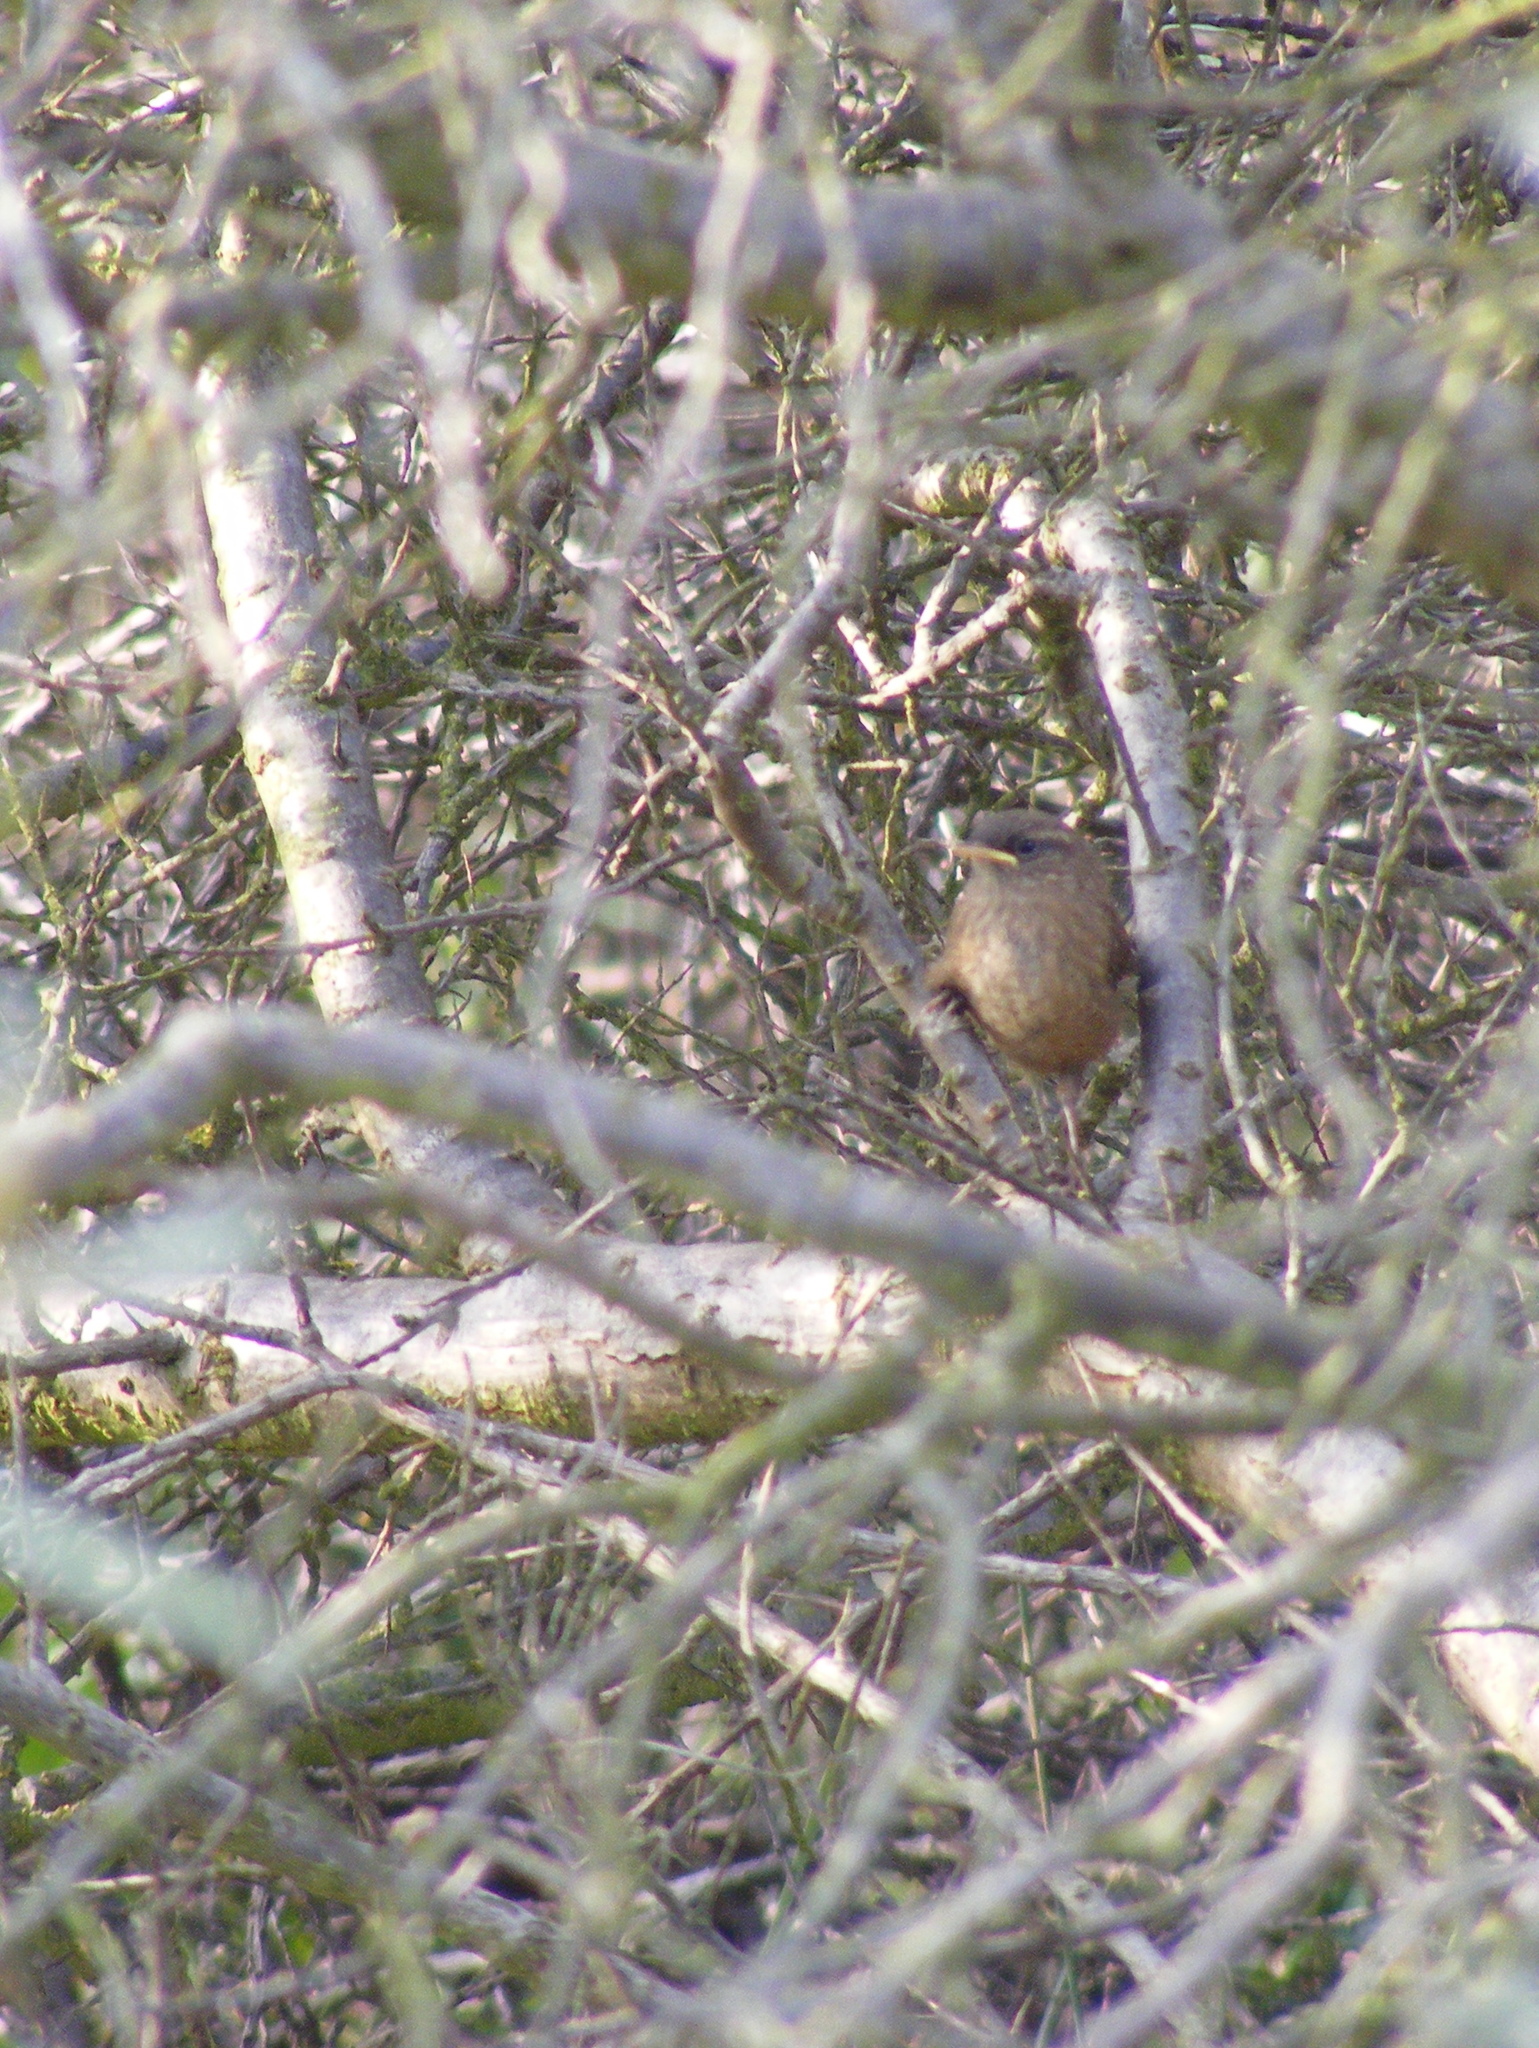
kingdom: Animalia
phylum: Chordata
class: Aves
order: Passeriformes
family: Troglodytidae
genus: Troglodytes
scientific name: Troglodytes troglodytes
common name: Eurasian wren
